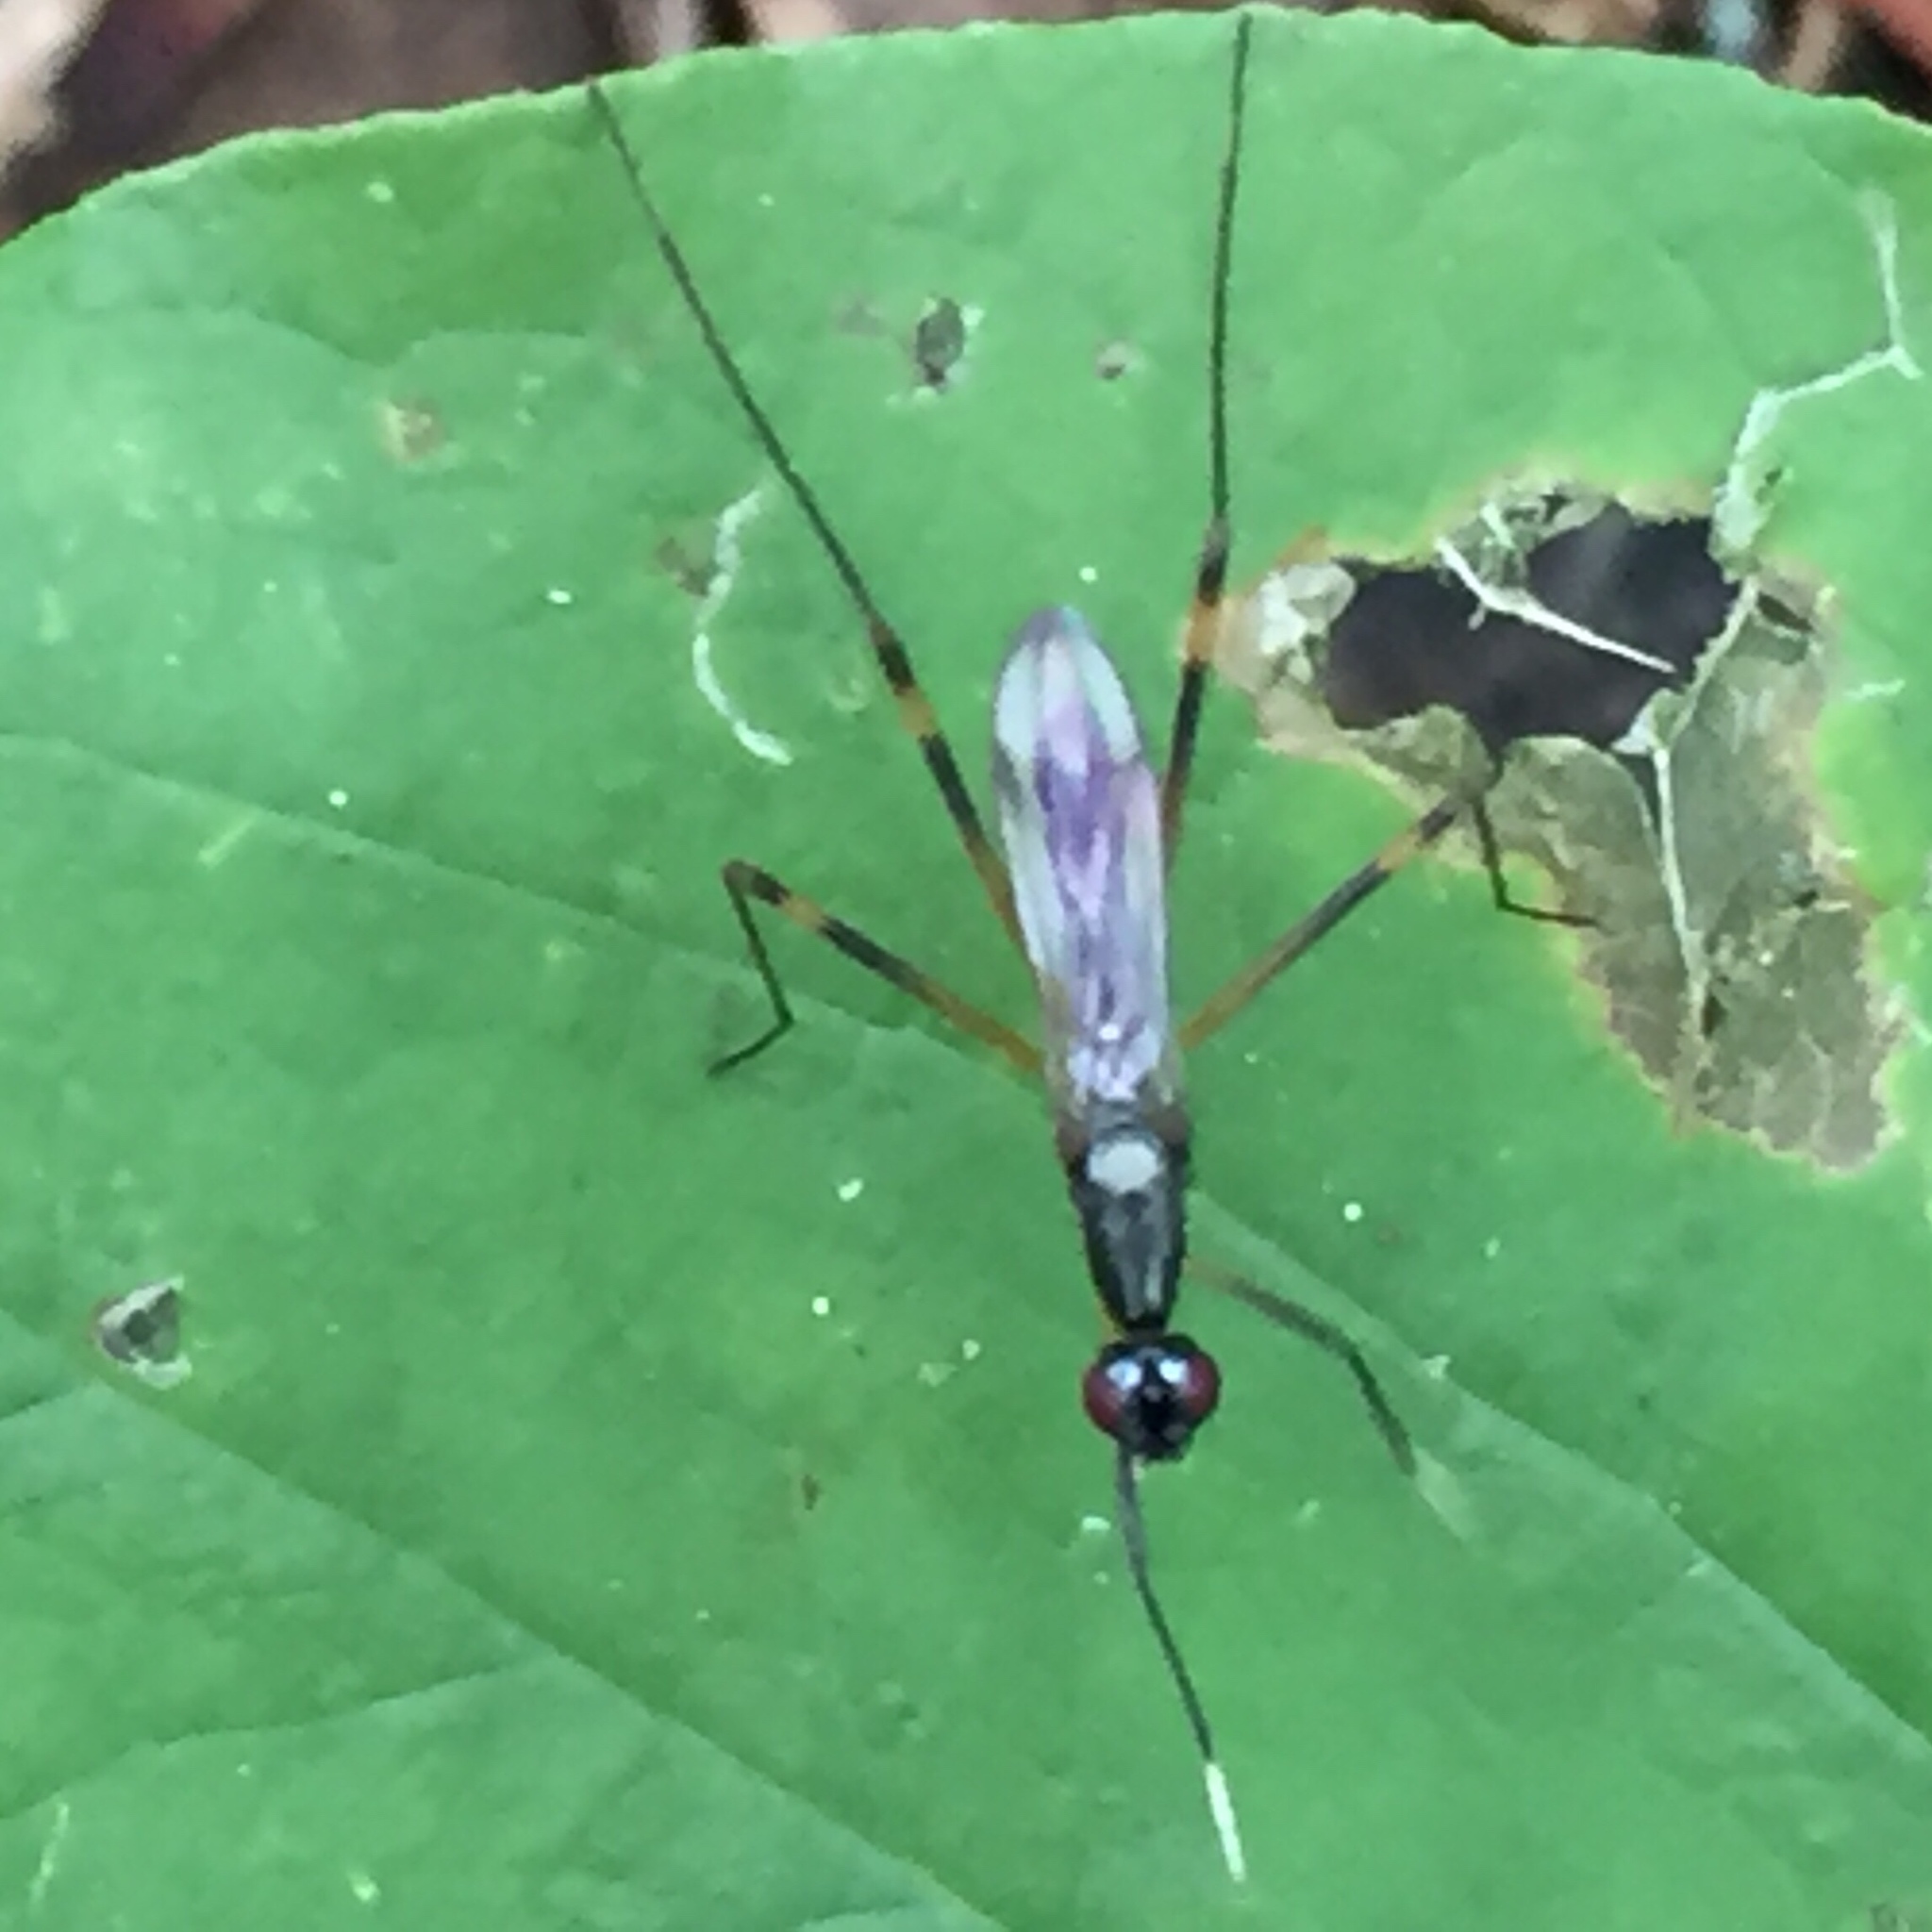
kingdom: Animalia
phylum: Arthropoda
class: Insecta
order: Diptera
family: Micropezidae
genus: Rainieria
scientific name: Rainieria antennaepes
